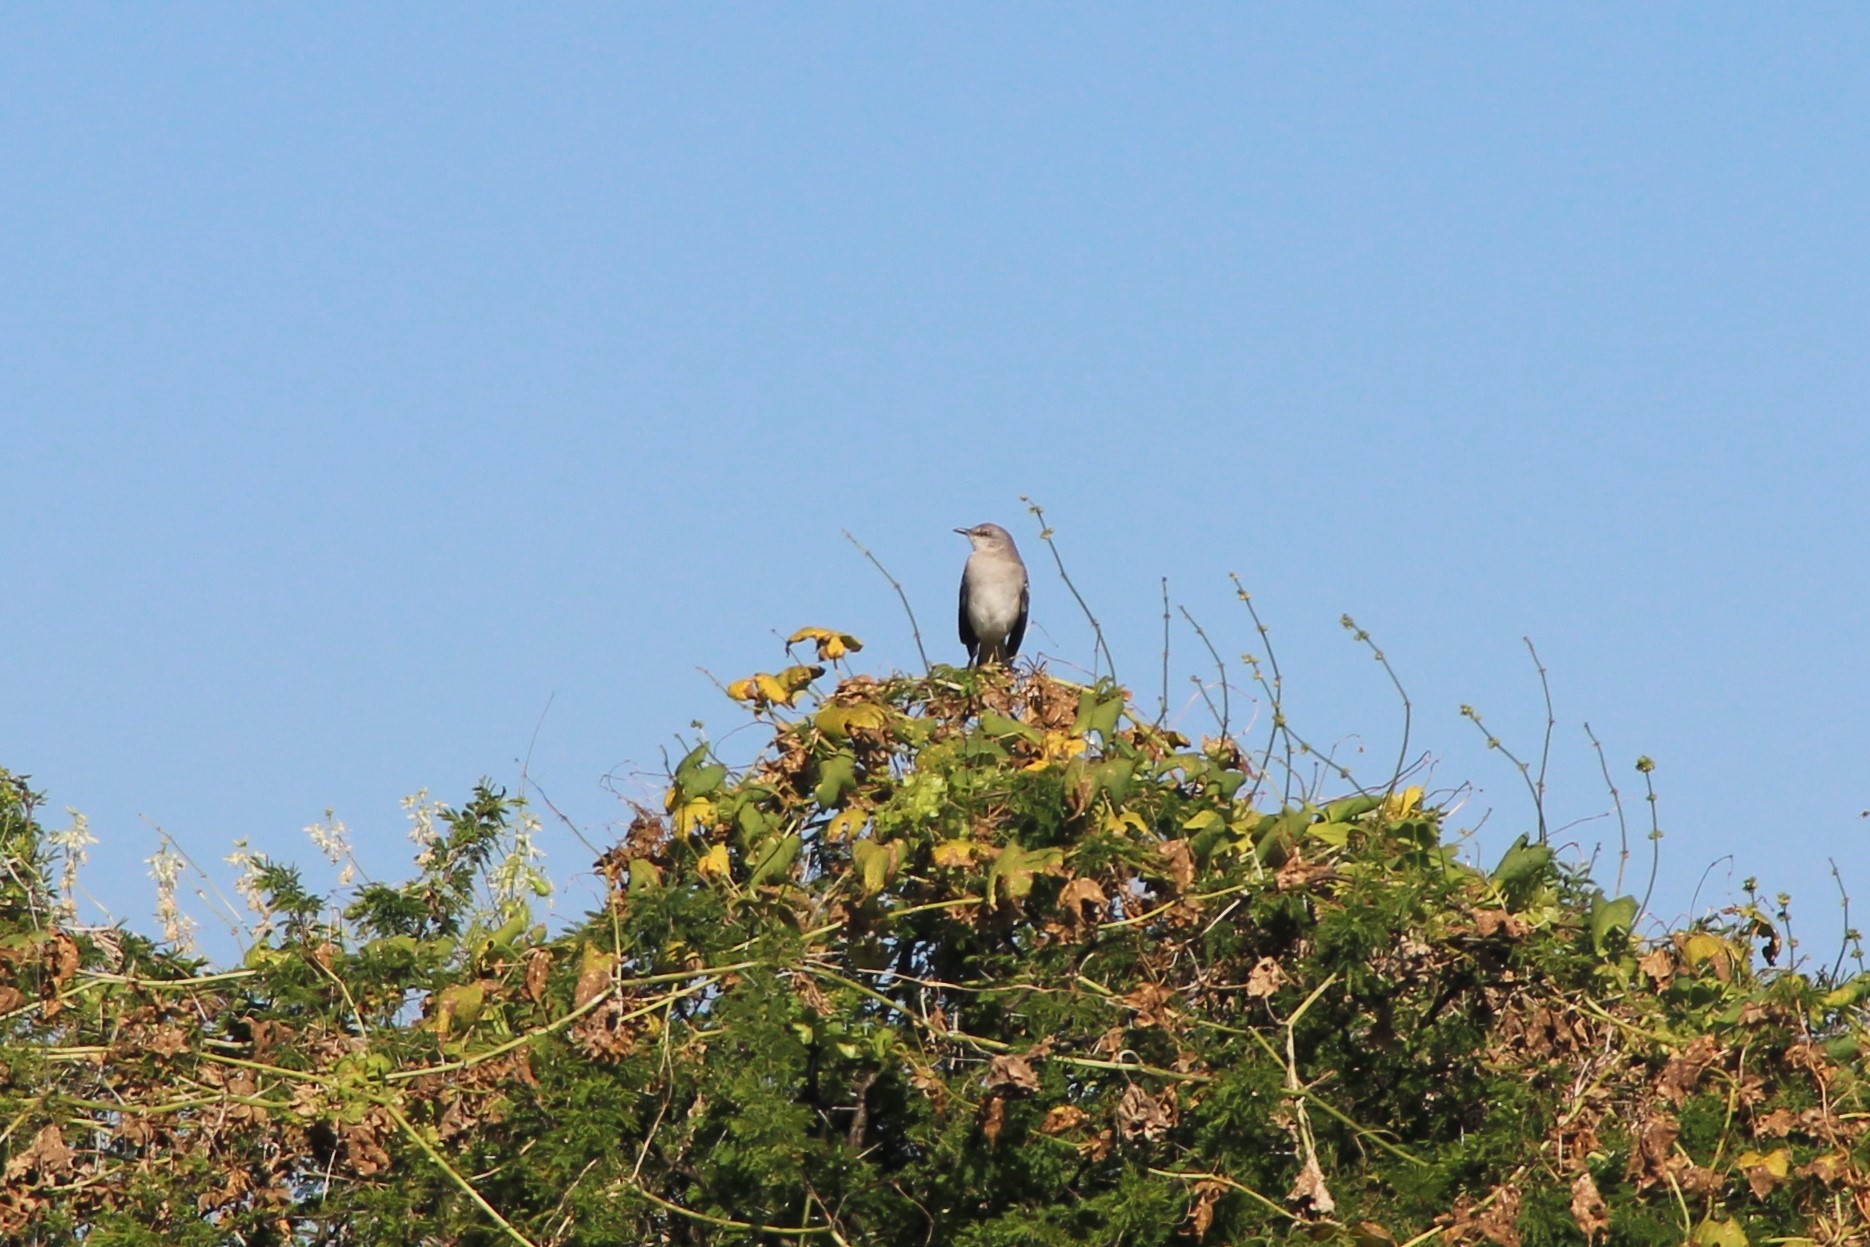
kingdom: Animalia
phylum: Chordata
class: Aves
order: Passeriformes
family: Mimidae
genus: Mimus
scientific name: Mimus polyglottos
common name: Northern mockingbird
